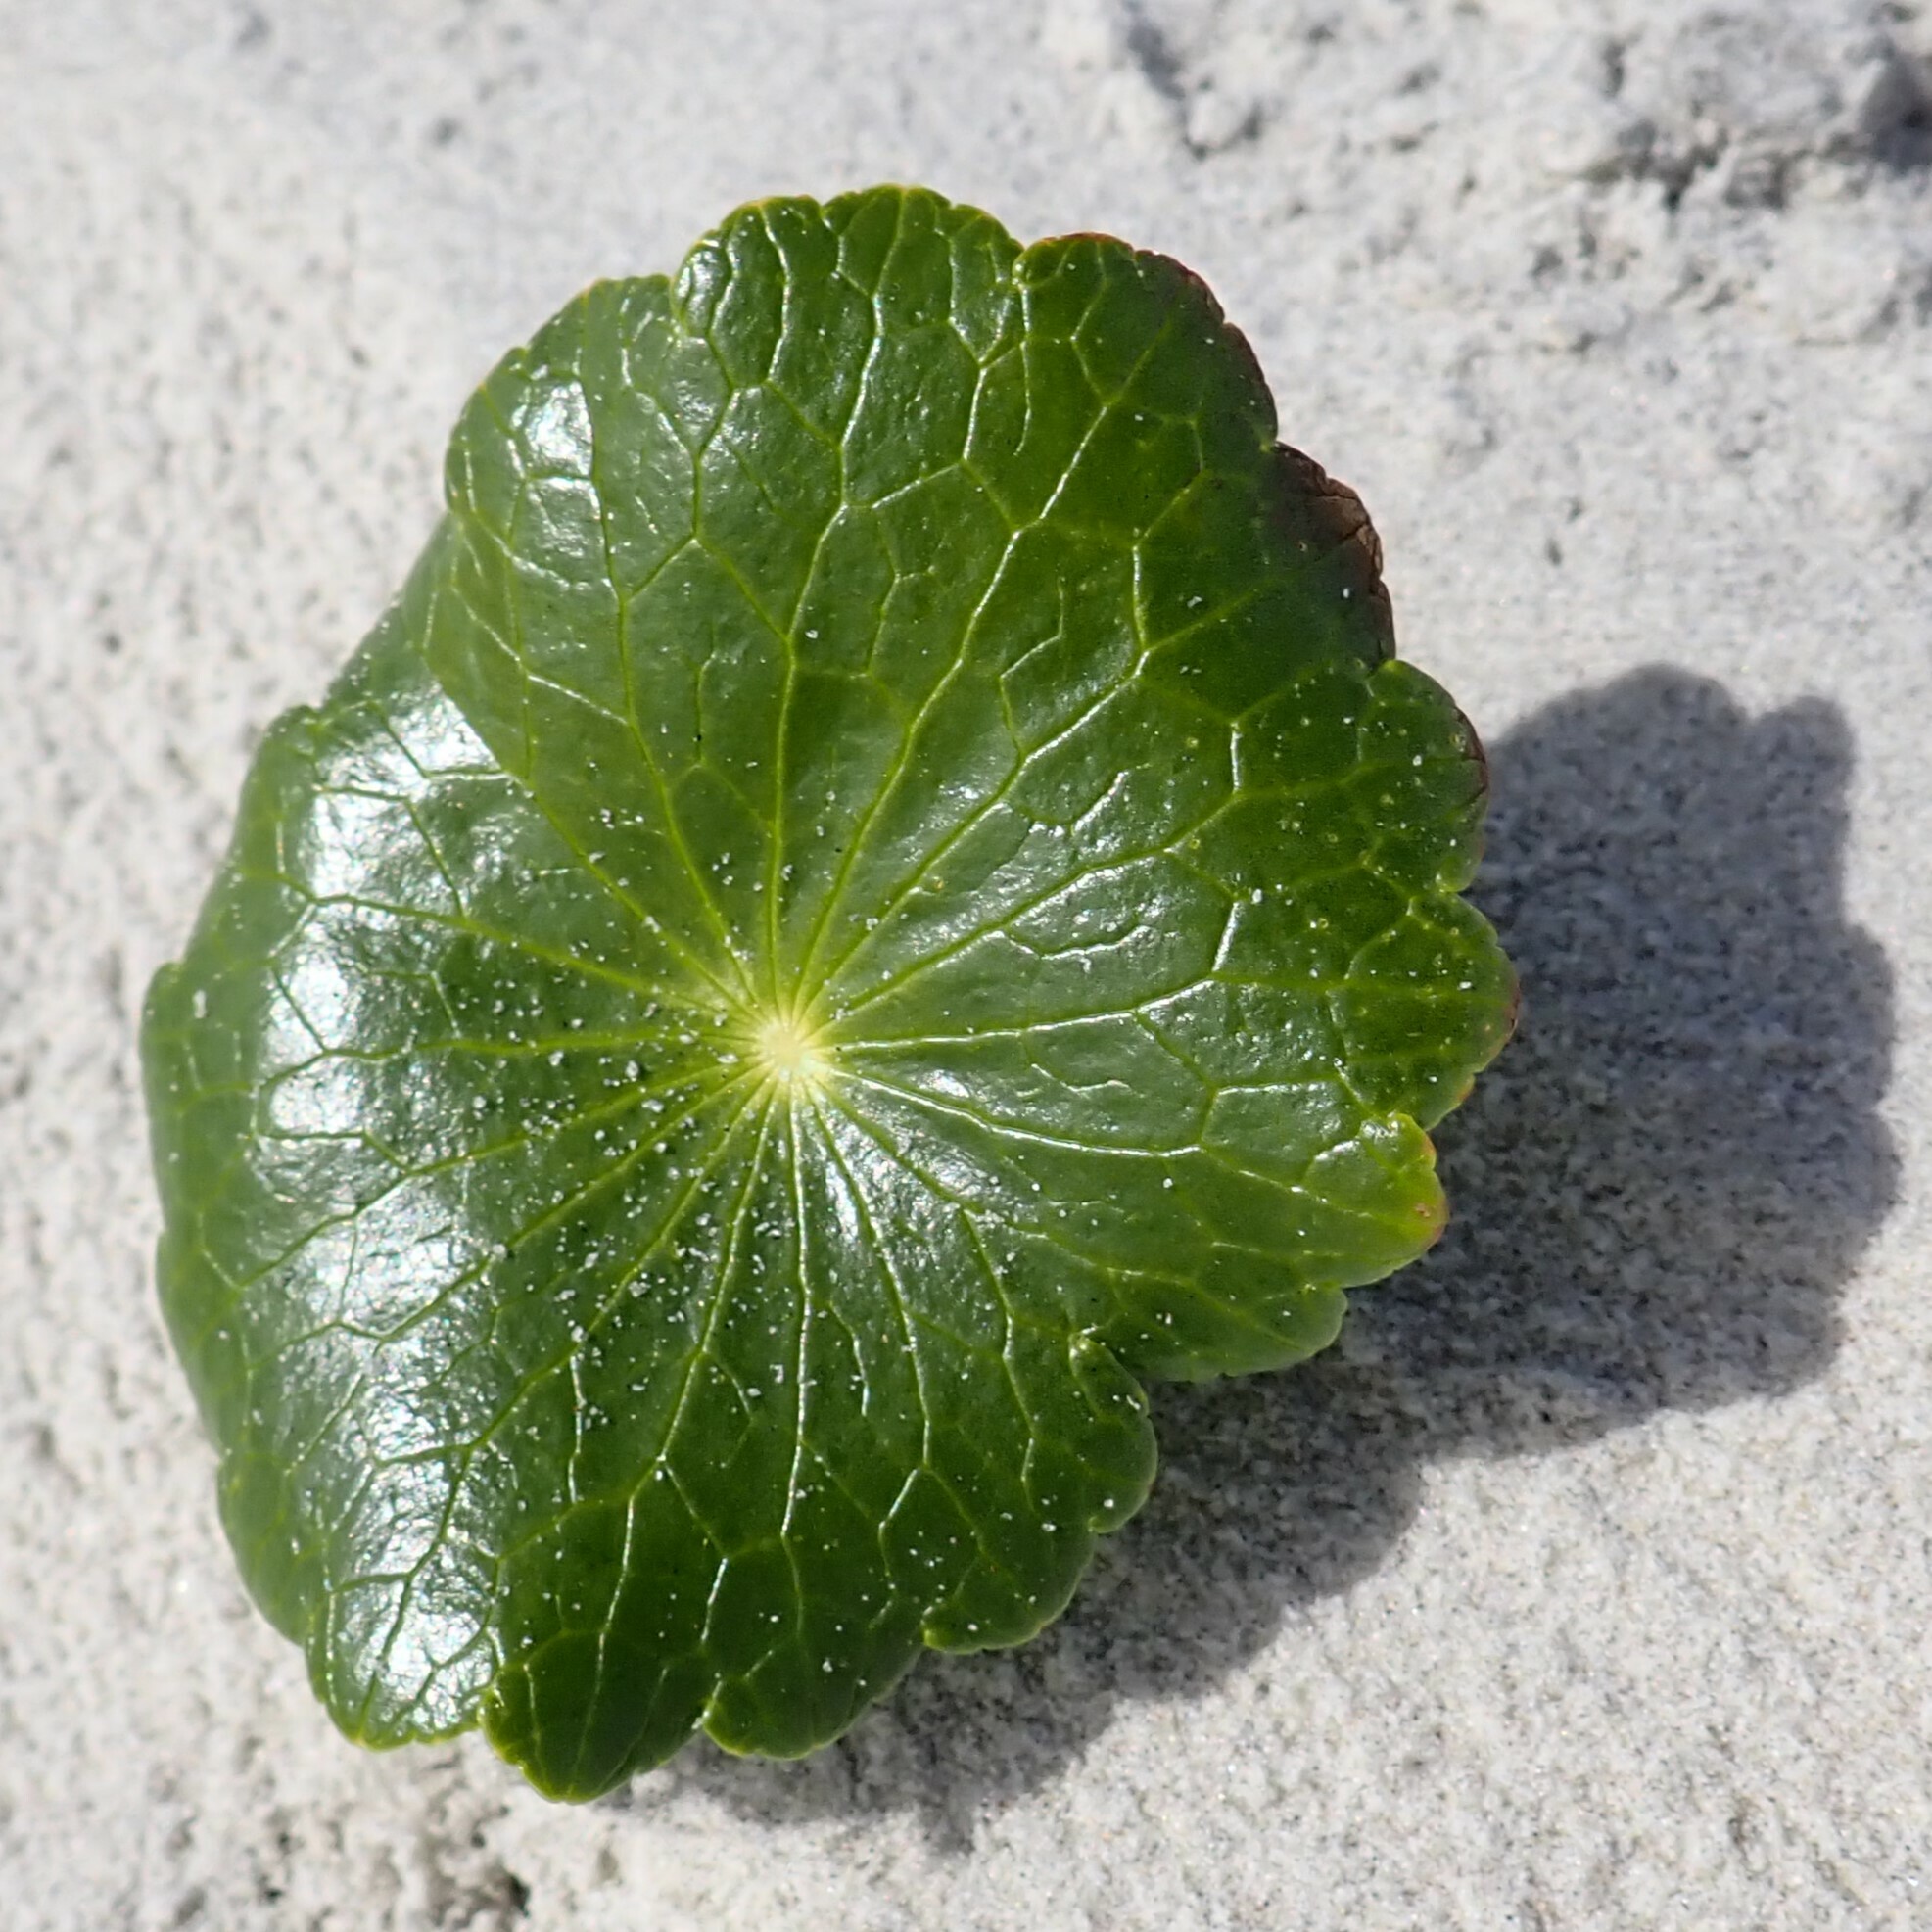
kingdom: Plantae
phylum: Tracheophyta
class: Magnoliopsida
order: Apiales
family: Araliaceae
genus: Hydrocotyle
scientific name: Hydrocotyle bonariensis
